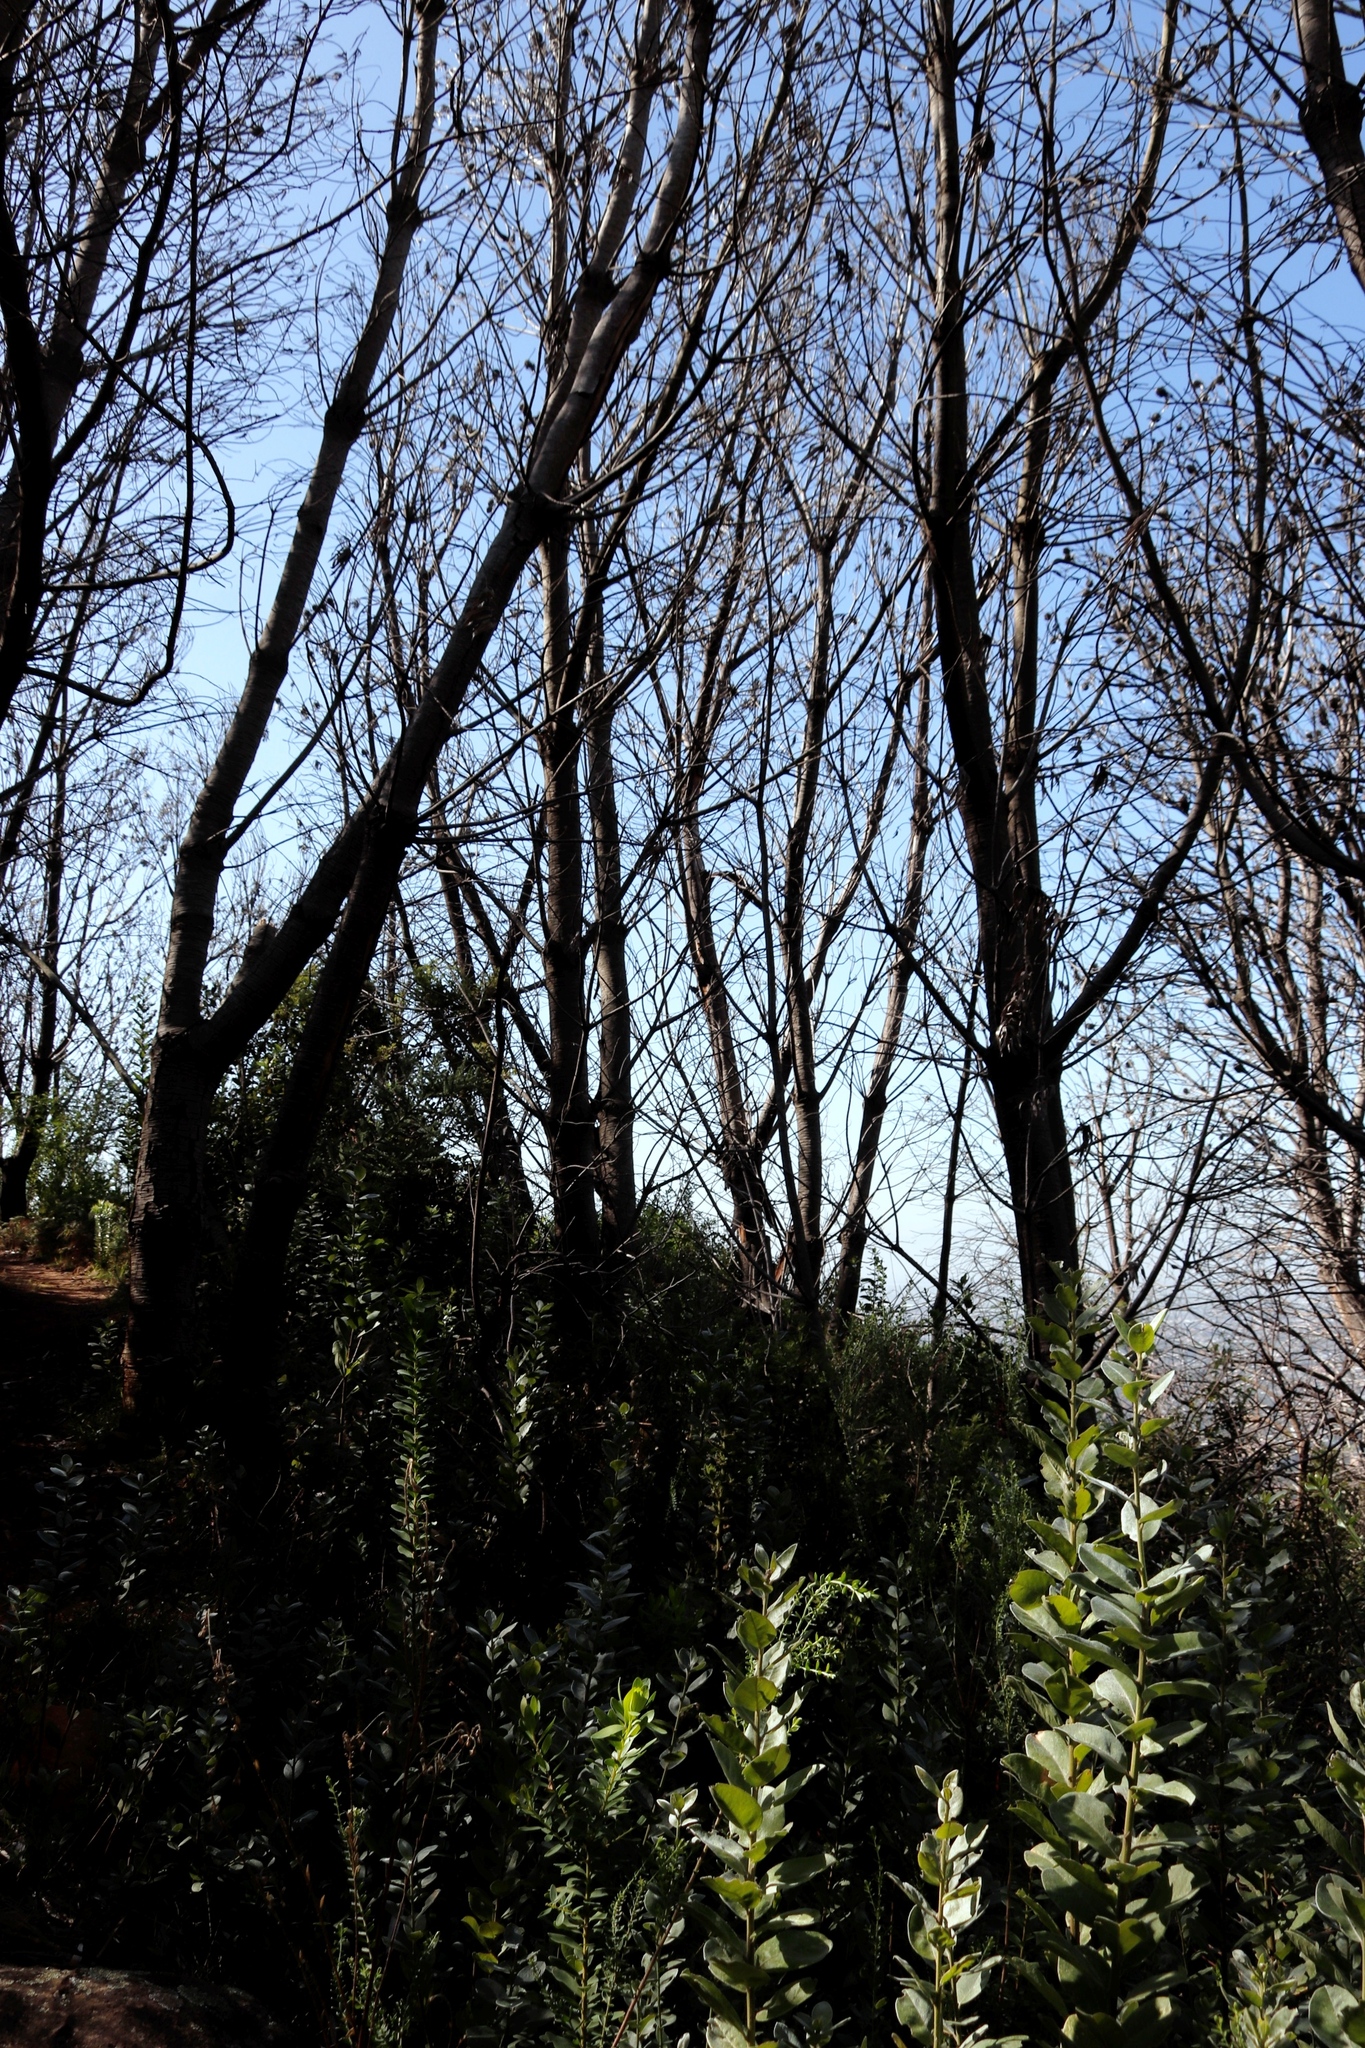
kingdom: Plantae
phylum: Tracheophyta
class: Magnoliopsida
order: Proteales
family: Proteaceae
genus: Leucadendron
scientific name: Leucadendron argenteum
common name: Cape silver tree
